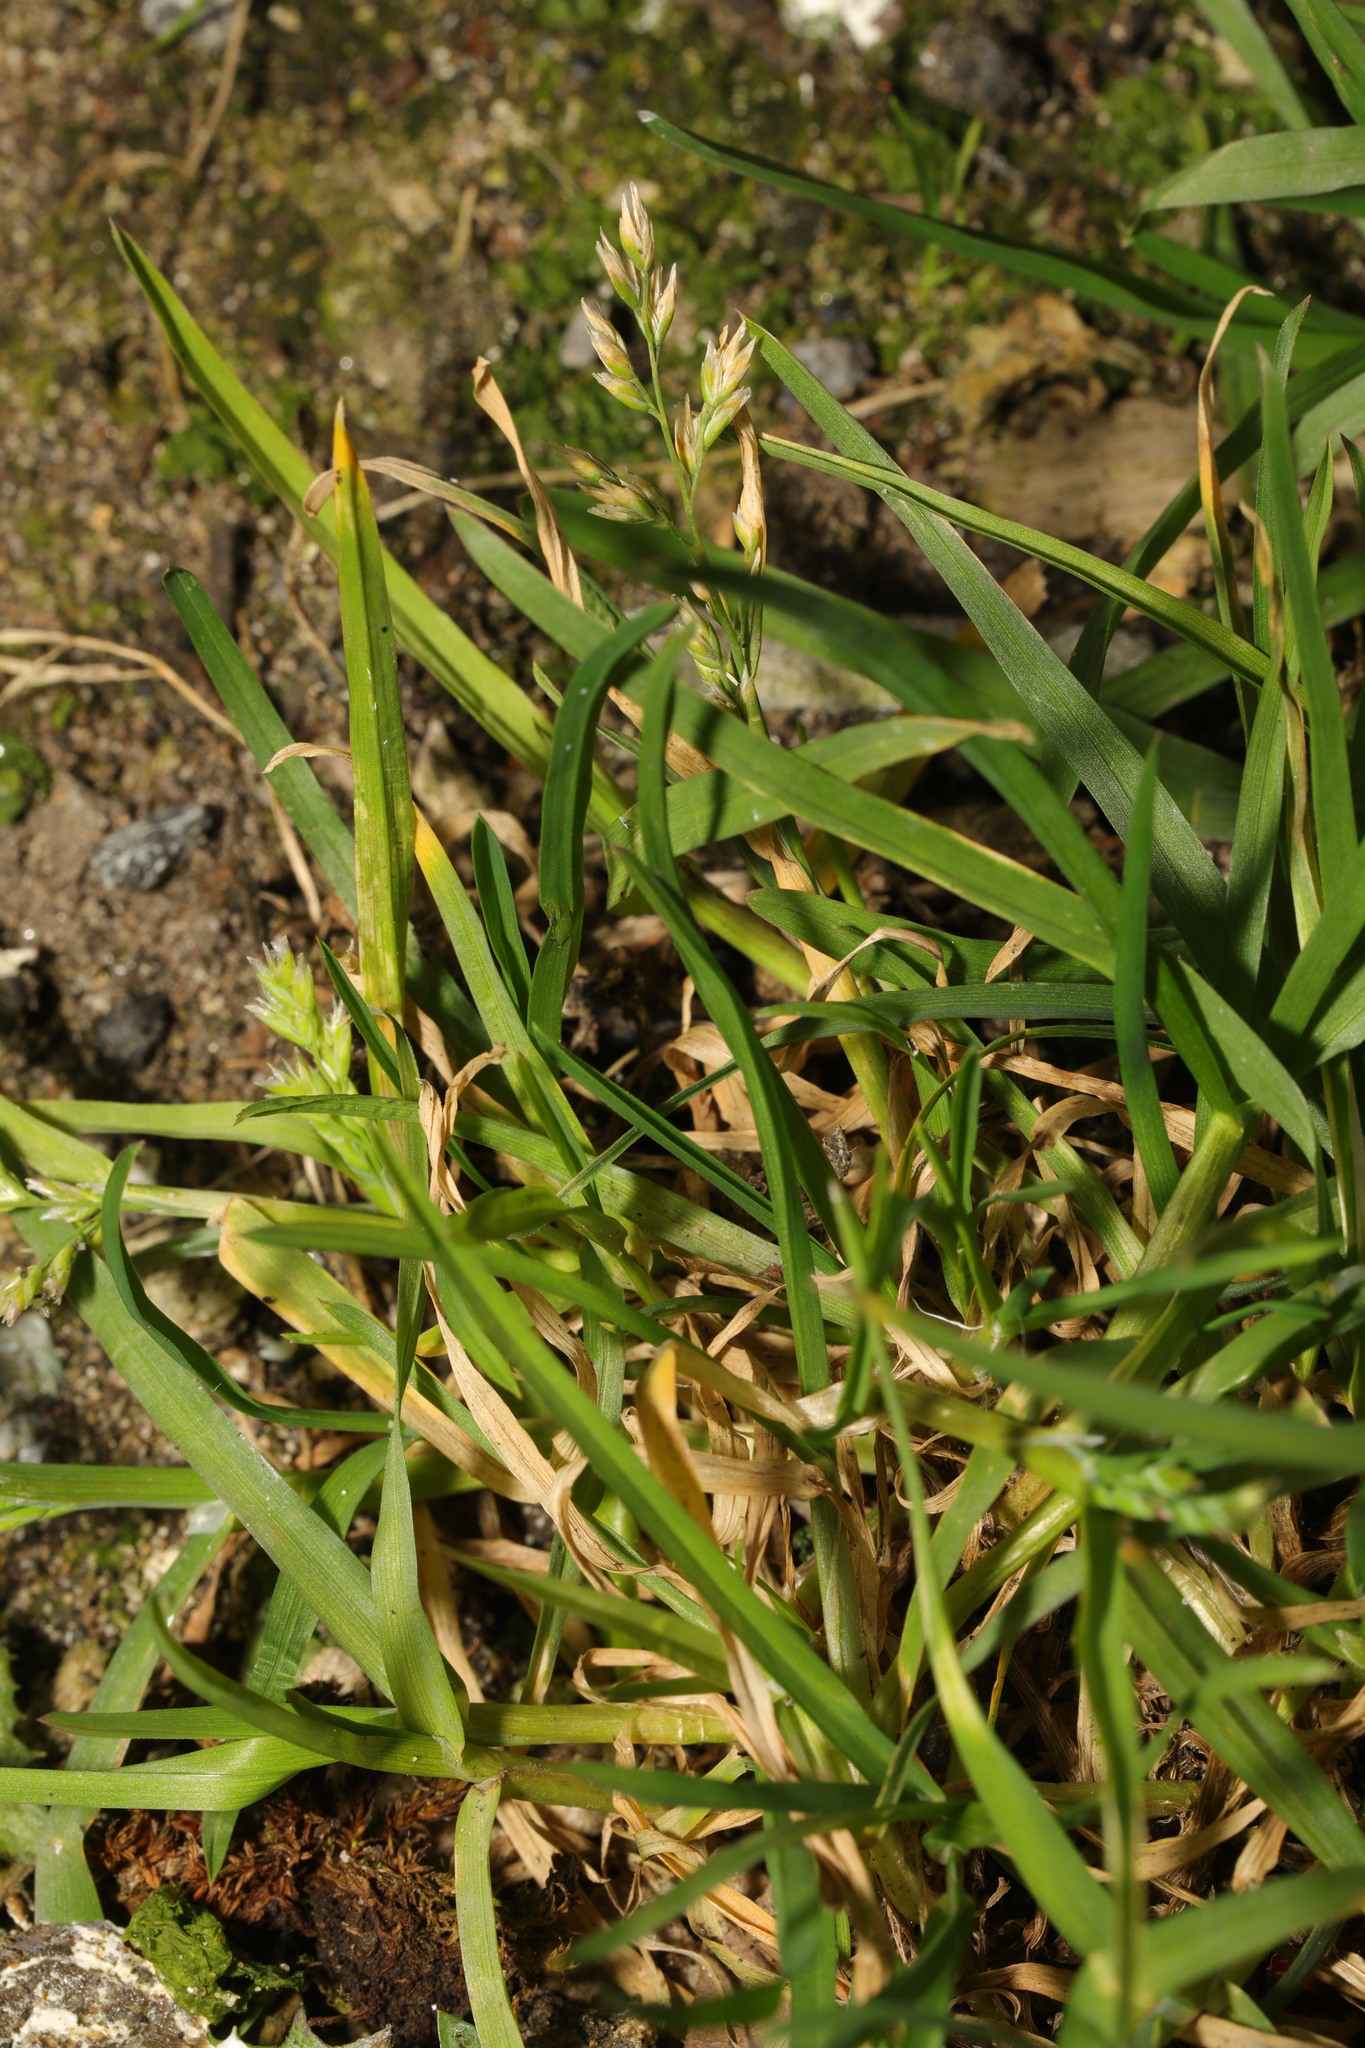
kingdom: Plantae
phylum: Tracheophyta
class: Liliopsida
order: Poales
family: Poaceae
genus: Poa
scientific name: Poa annua
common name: Annual bluegrass
